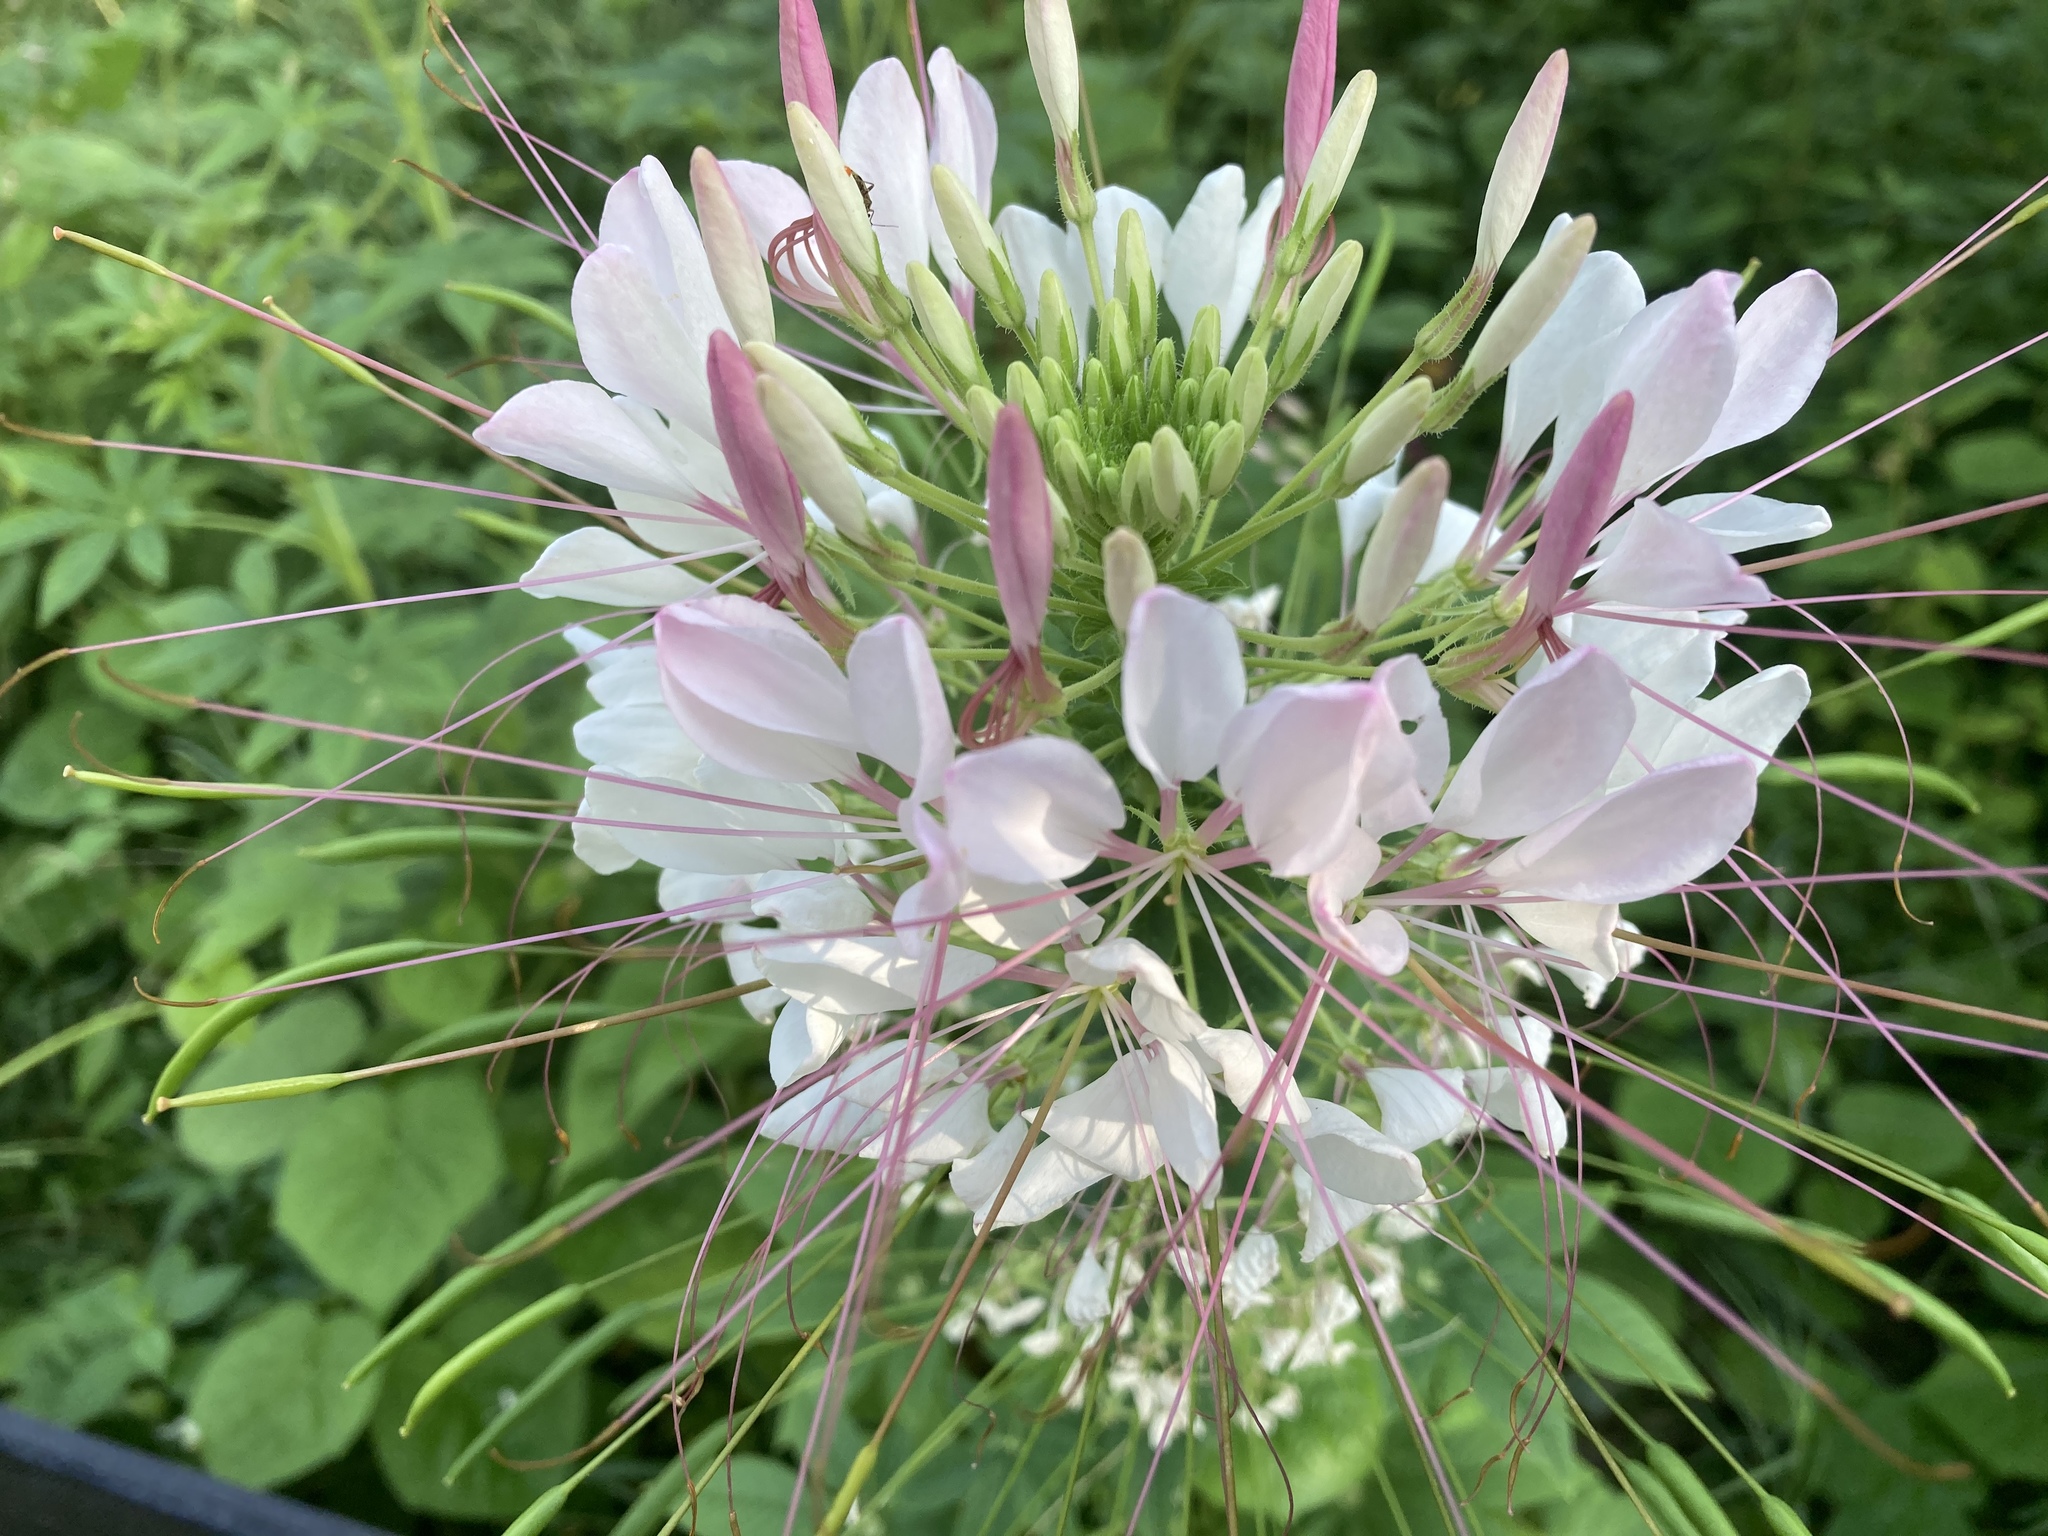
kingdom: Plantae
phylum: Tracheophyta
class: Magnoliopsida
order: Brassicales
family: Cleomaceae
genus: Tarenaya
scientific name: Tarenaya houtteana
